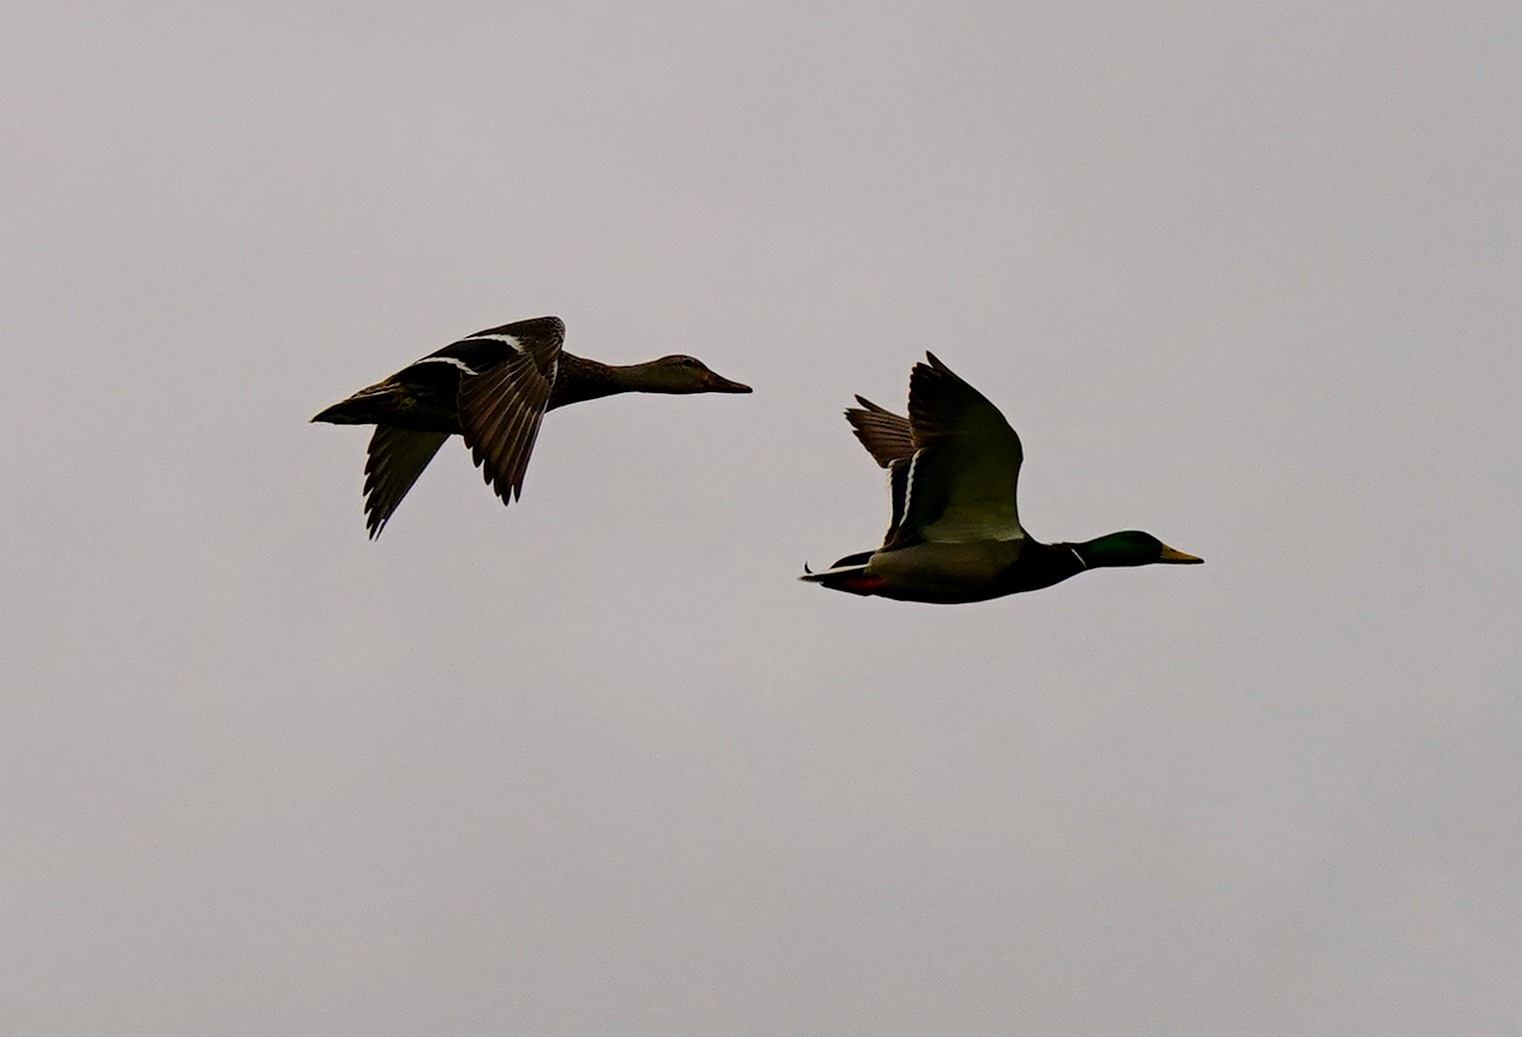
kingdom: Animalia
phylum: Chordata
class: Aves
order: Anseriformes
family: Anatidae
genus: Anas
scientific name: Anas platyrhynchos
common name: Mallard
